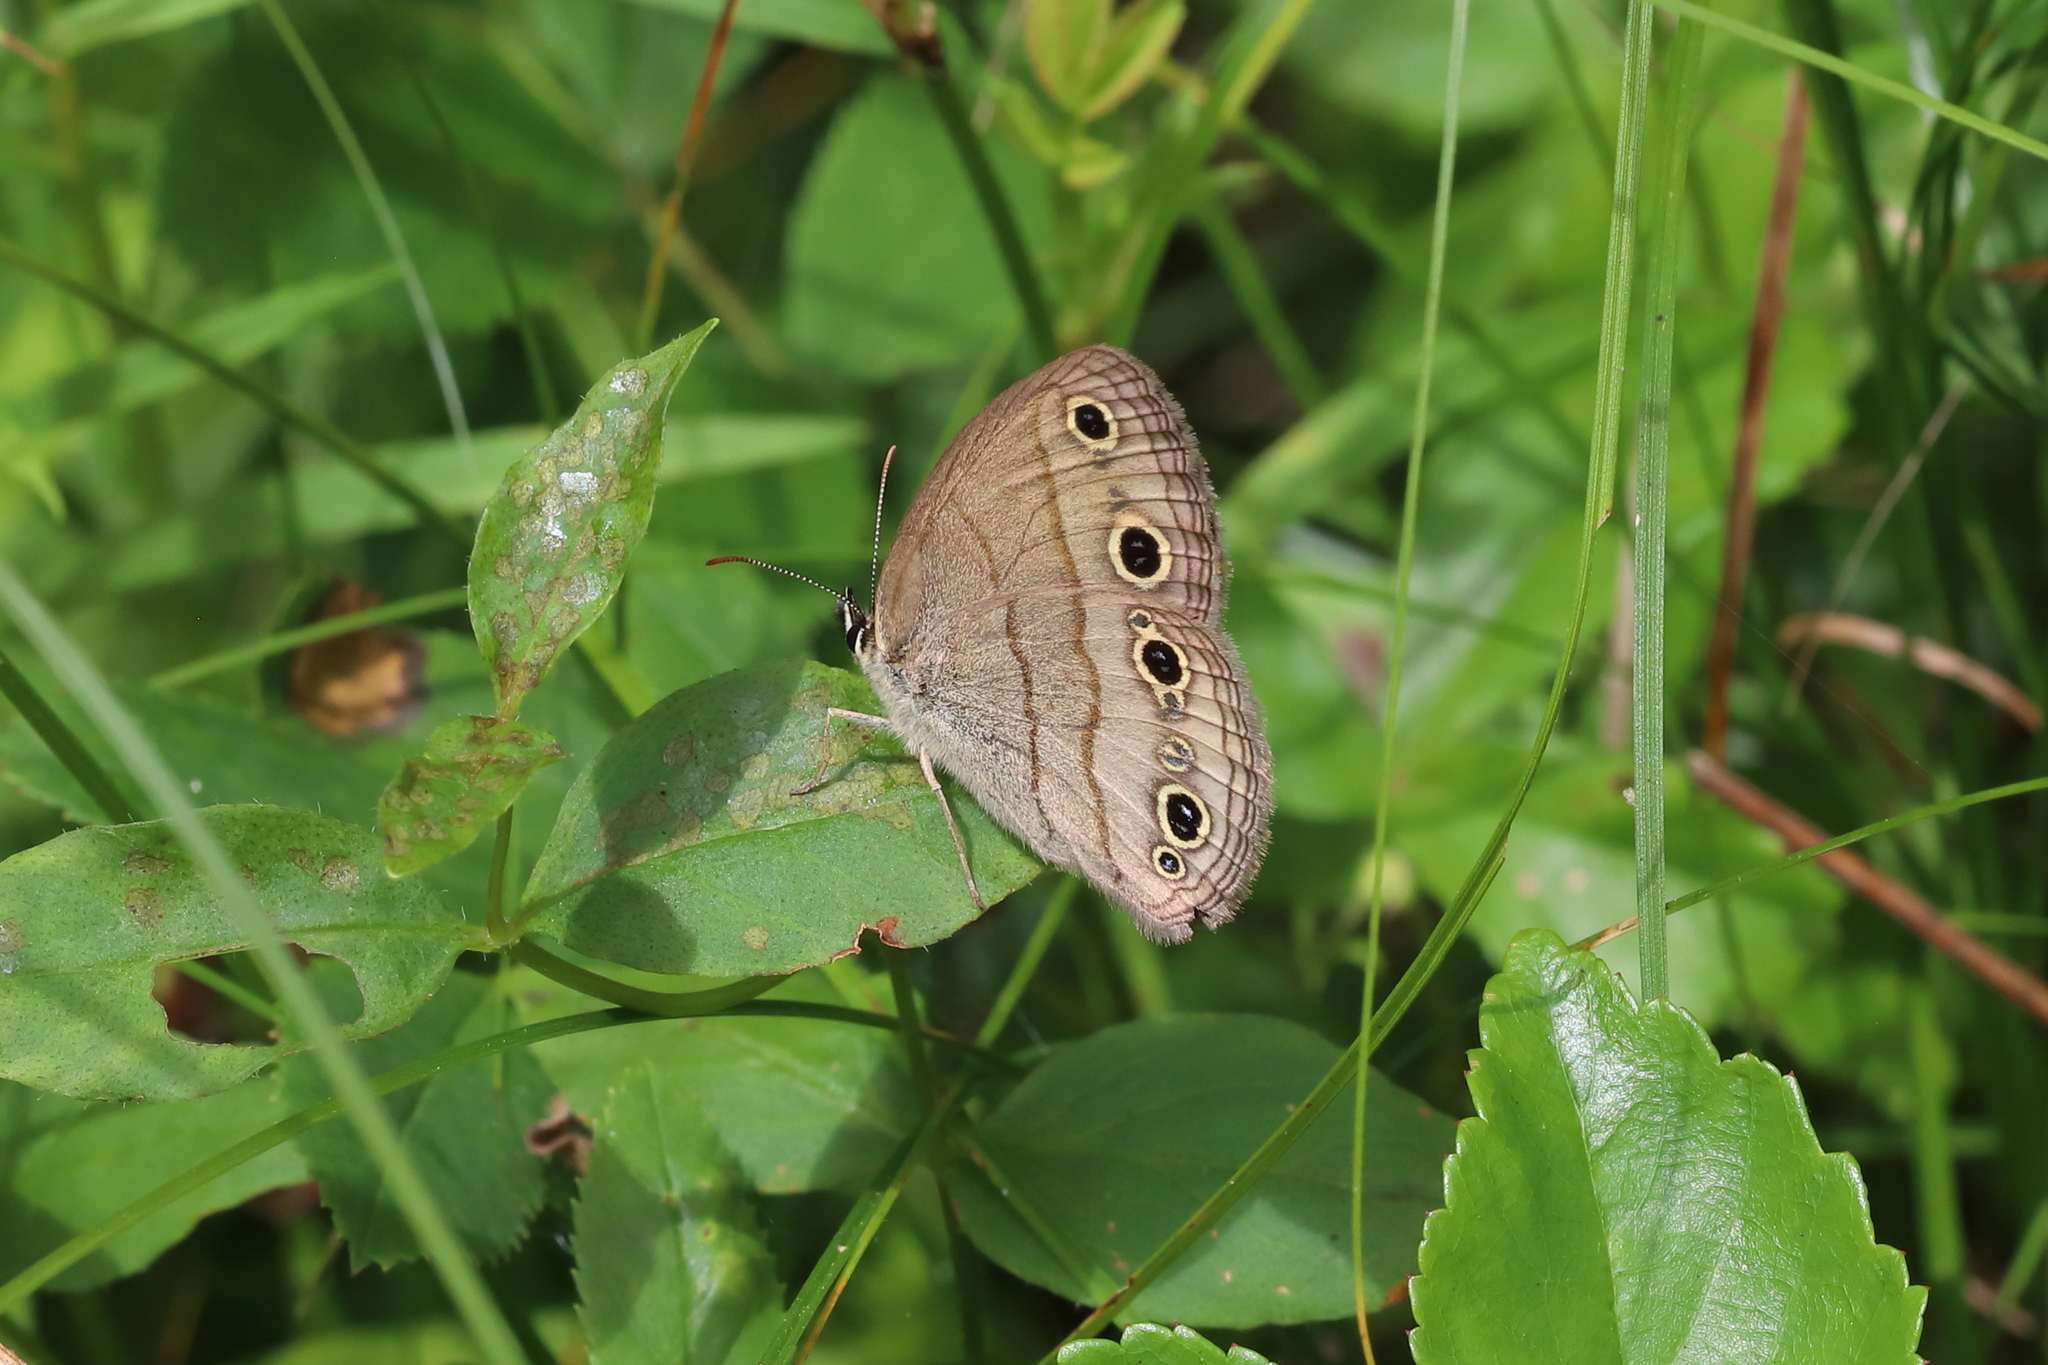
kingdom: Animalia
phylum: Arthropoda
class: Insecta
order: Lepidoptera
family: Nymphalidae
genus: Euptychia
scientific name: Euptychia cymela
